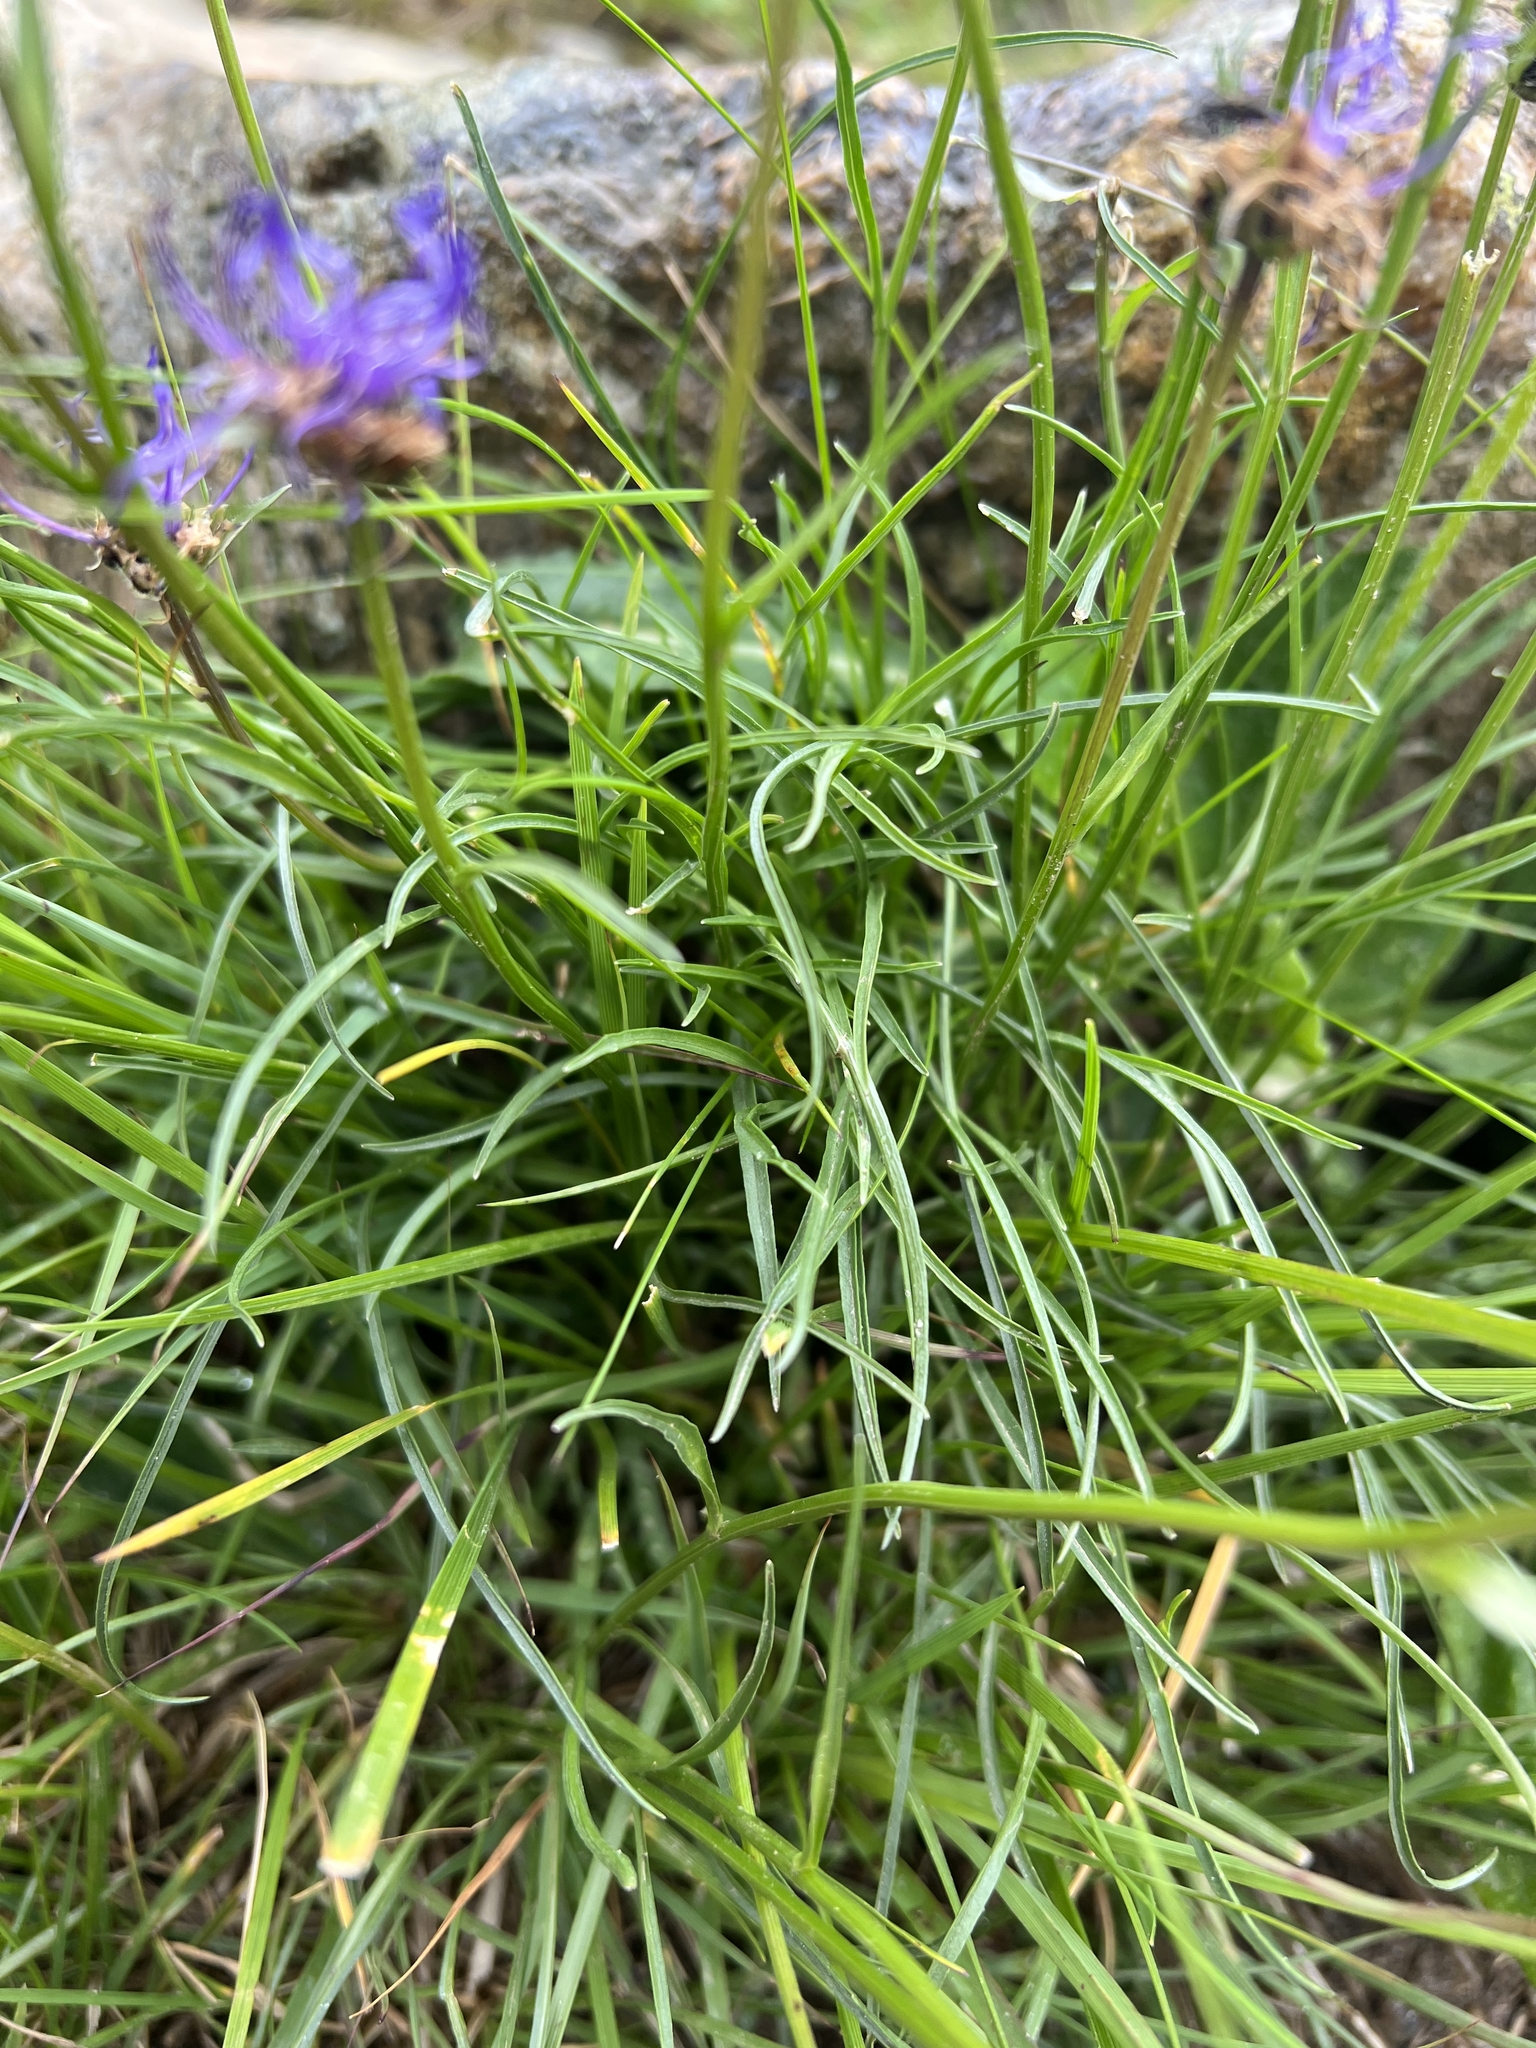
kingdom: Plantae
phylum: Tracheophyta
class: Magnoliopsida
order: Asterales
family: Campanulaceae
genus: Phyteuma
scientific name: Phyteuma hemisphaericum
